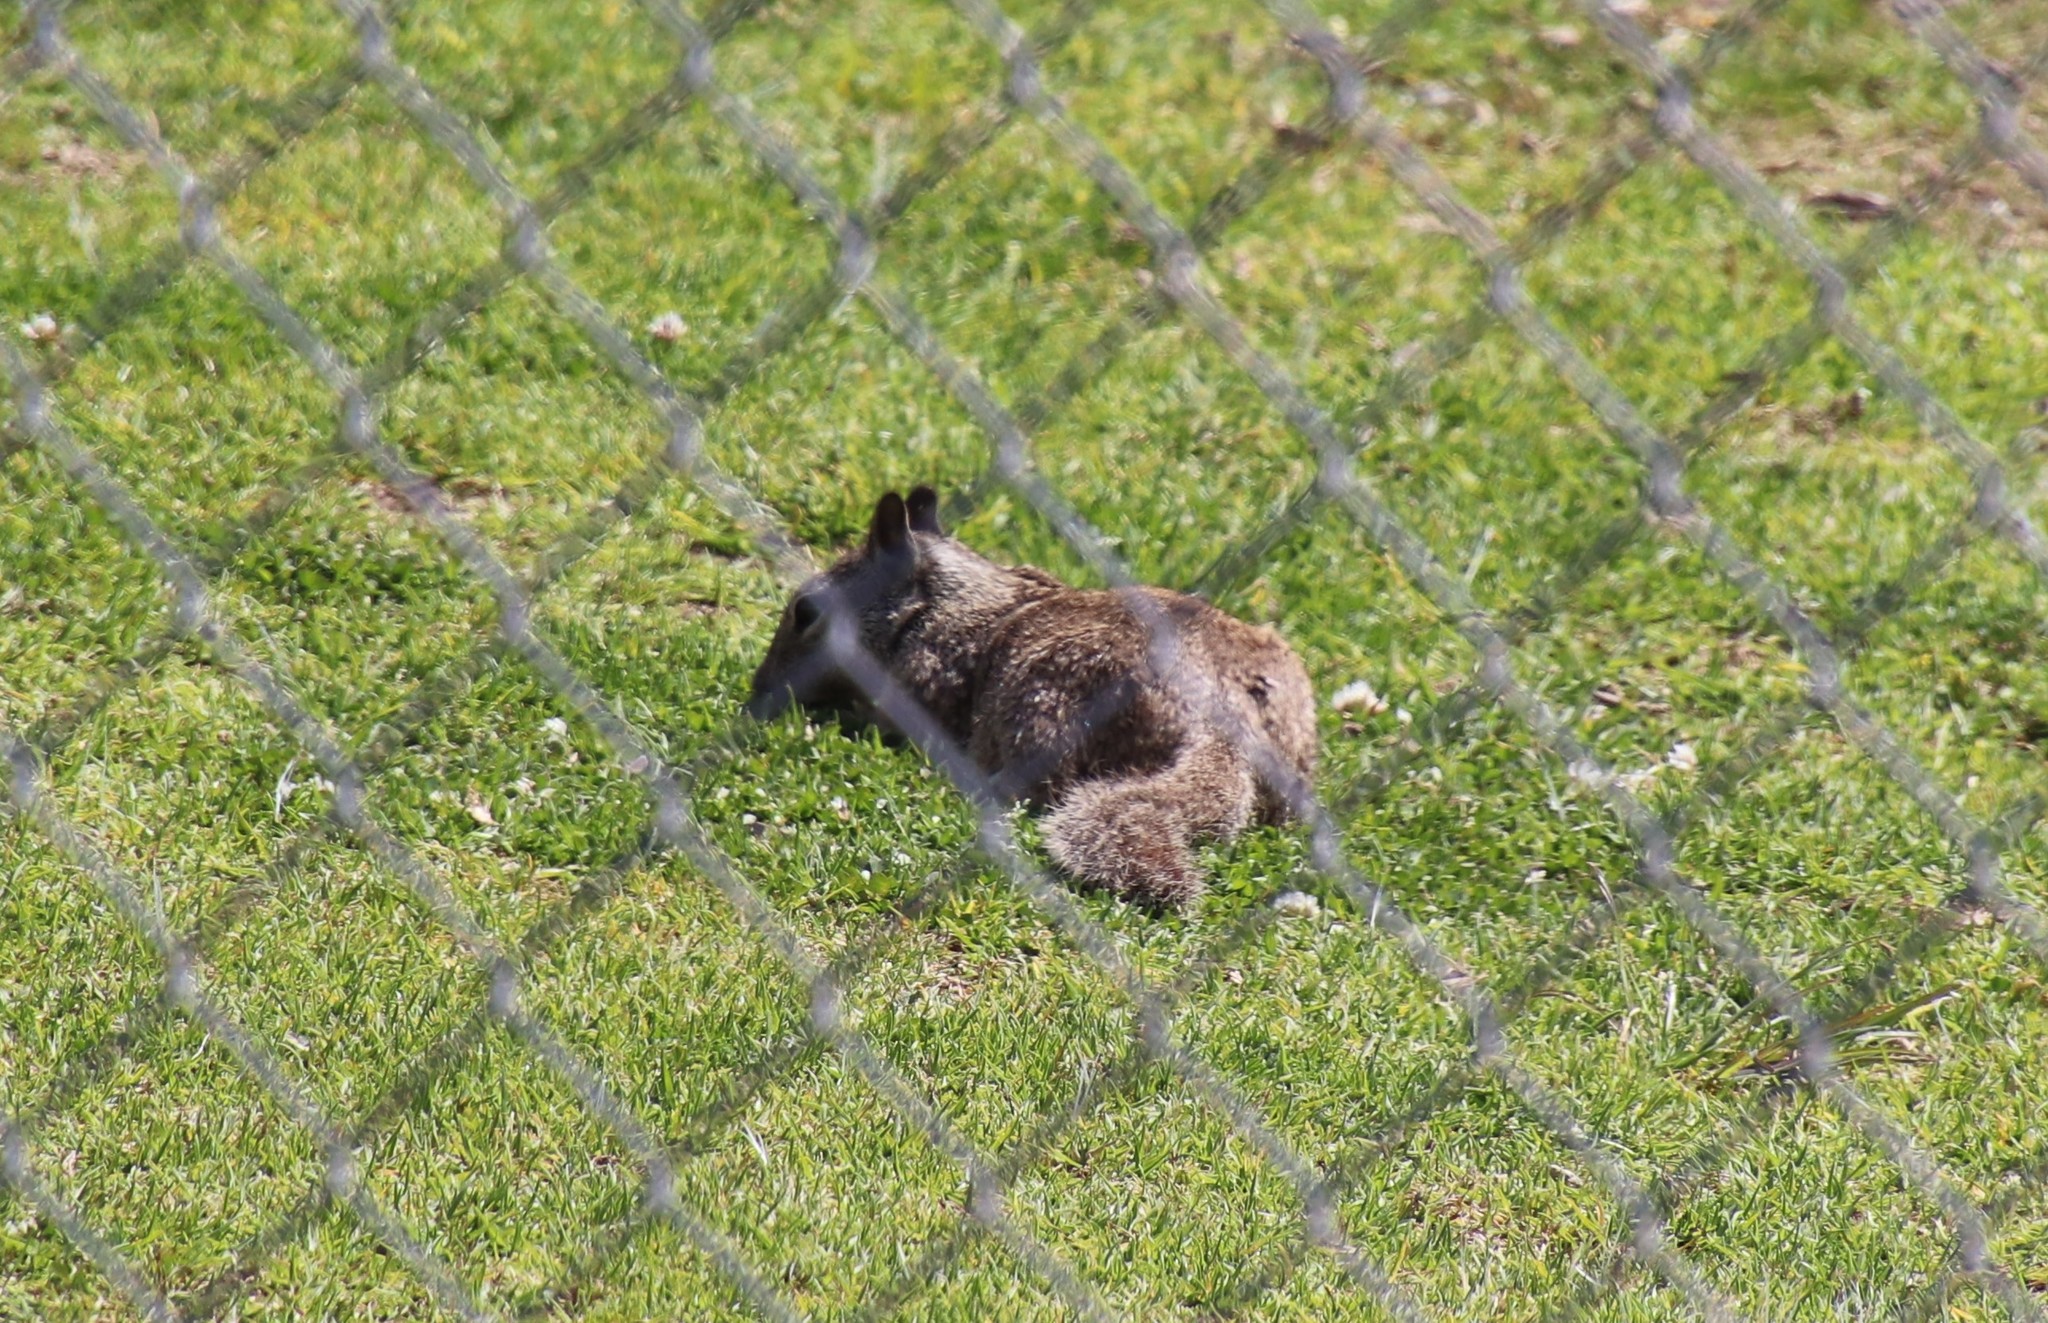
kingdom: Animalia
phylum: Chordata
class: Mammalia
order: Rodentia
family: Sciuridae
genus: Otospermophilus
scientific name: Otospermophilus beecheyi
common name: California ground squirrel
